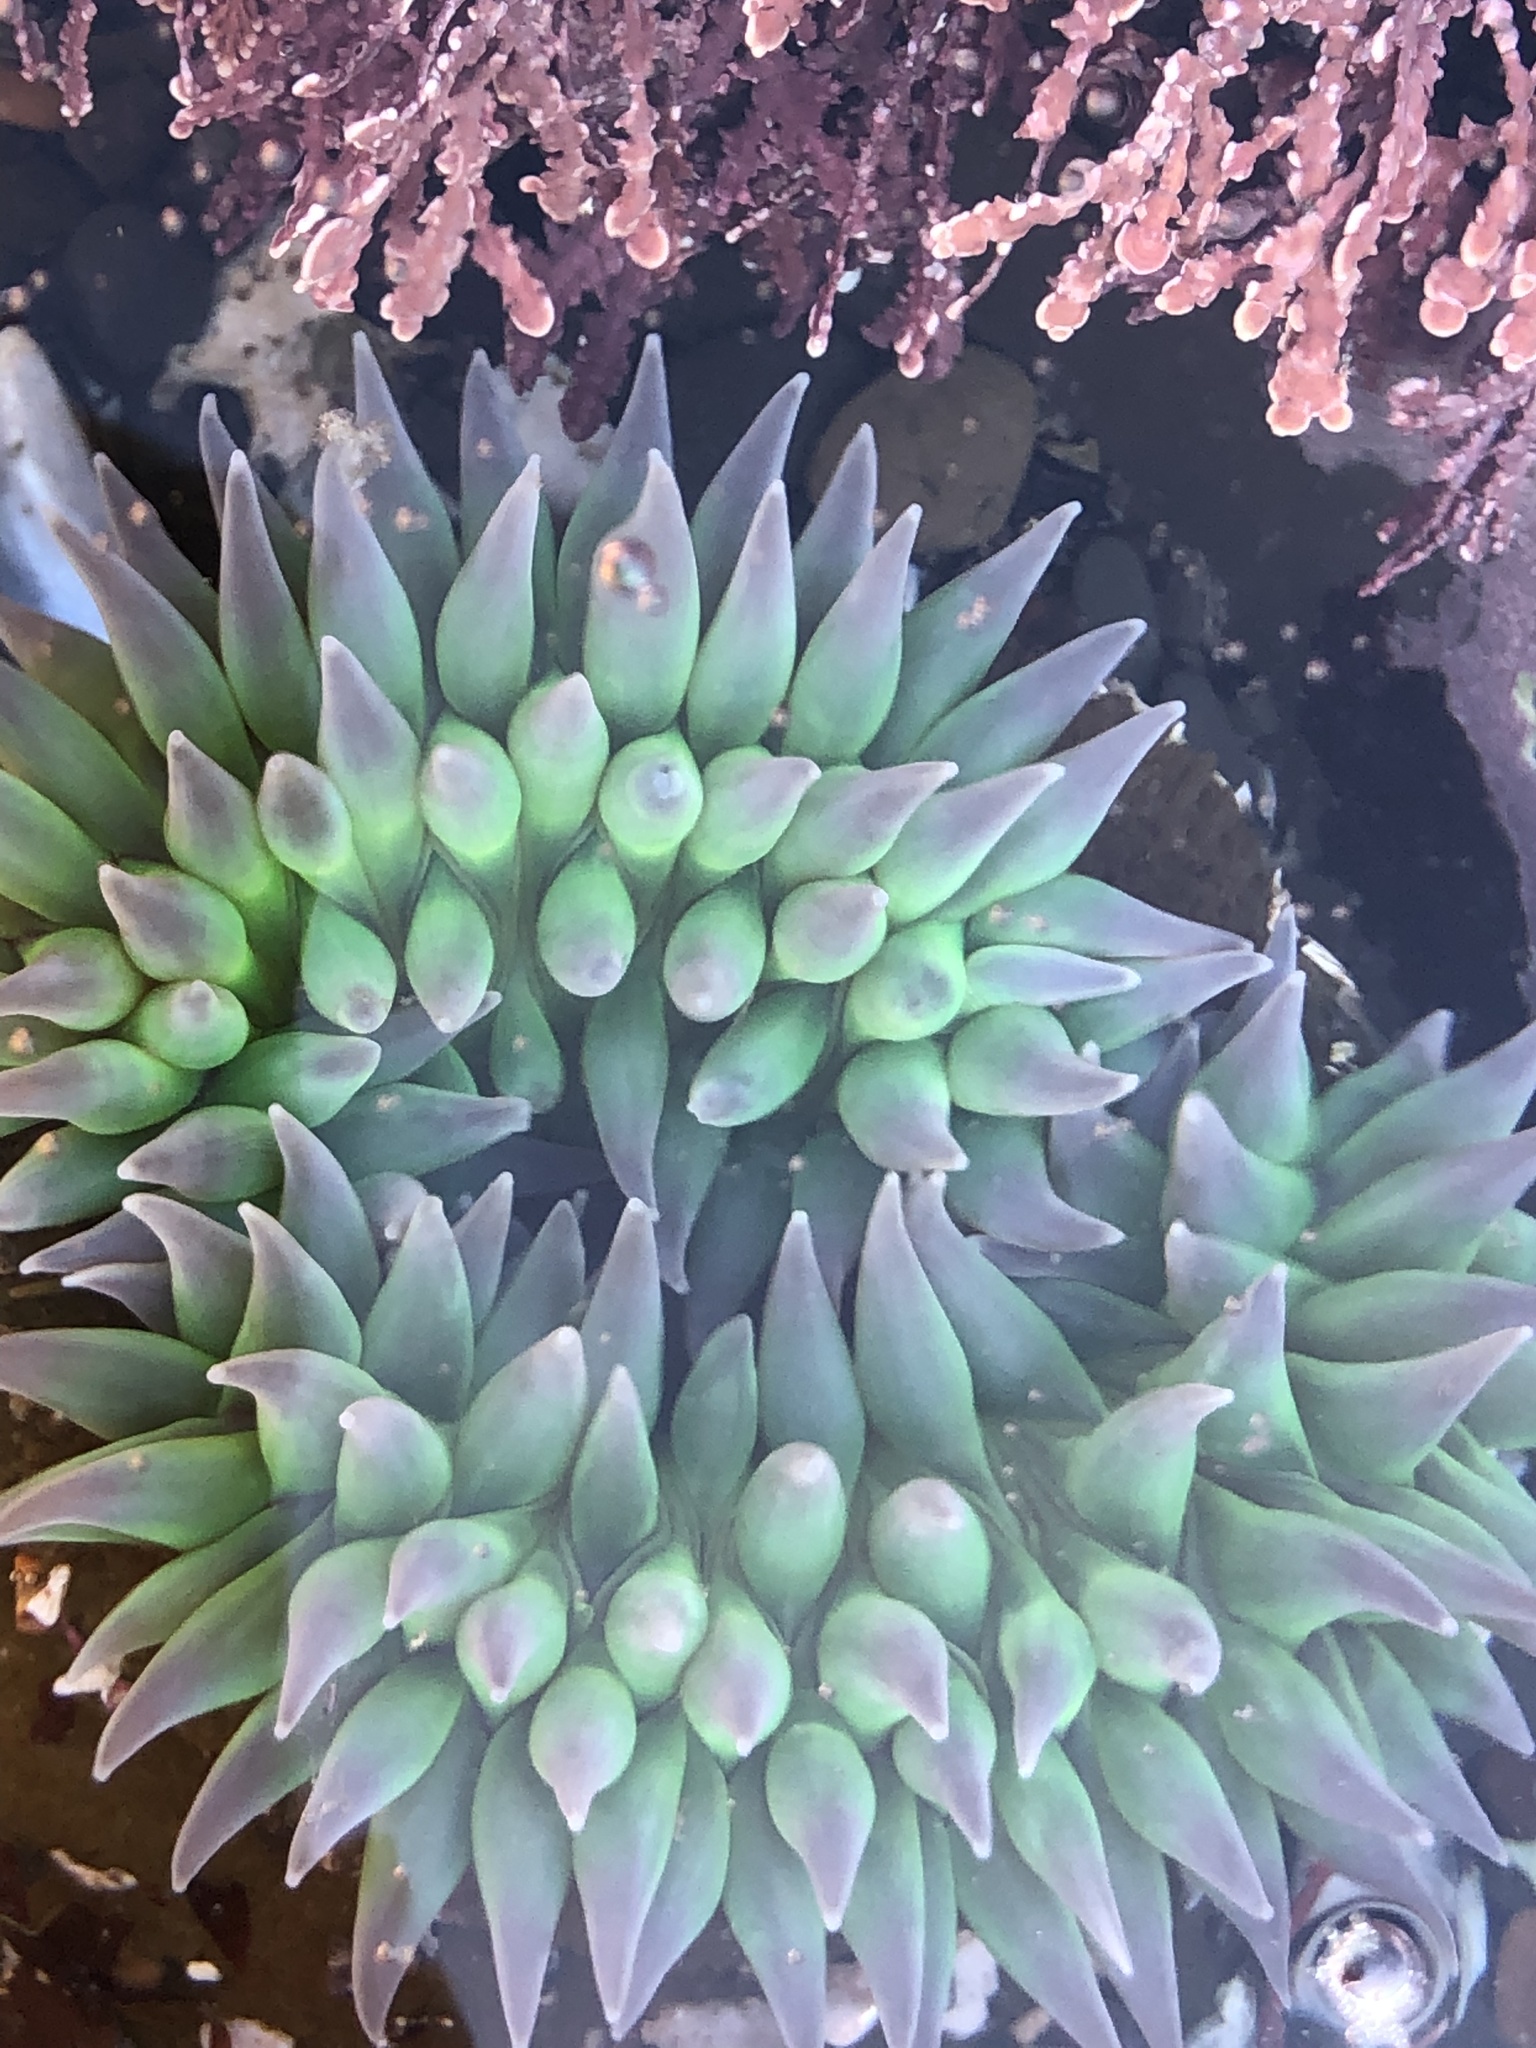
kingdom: Animalia
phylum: Cnidaria
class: Anthozoa
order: Actiniaria
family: Actiniidae
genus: Anthopleura
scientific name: Anthopleura xanthogrammica
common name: Giant green anemone
